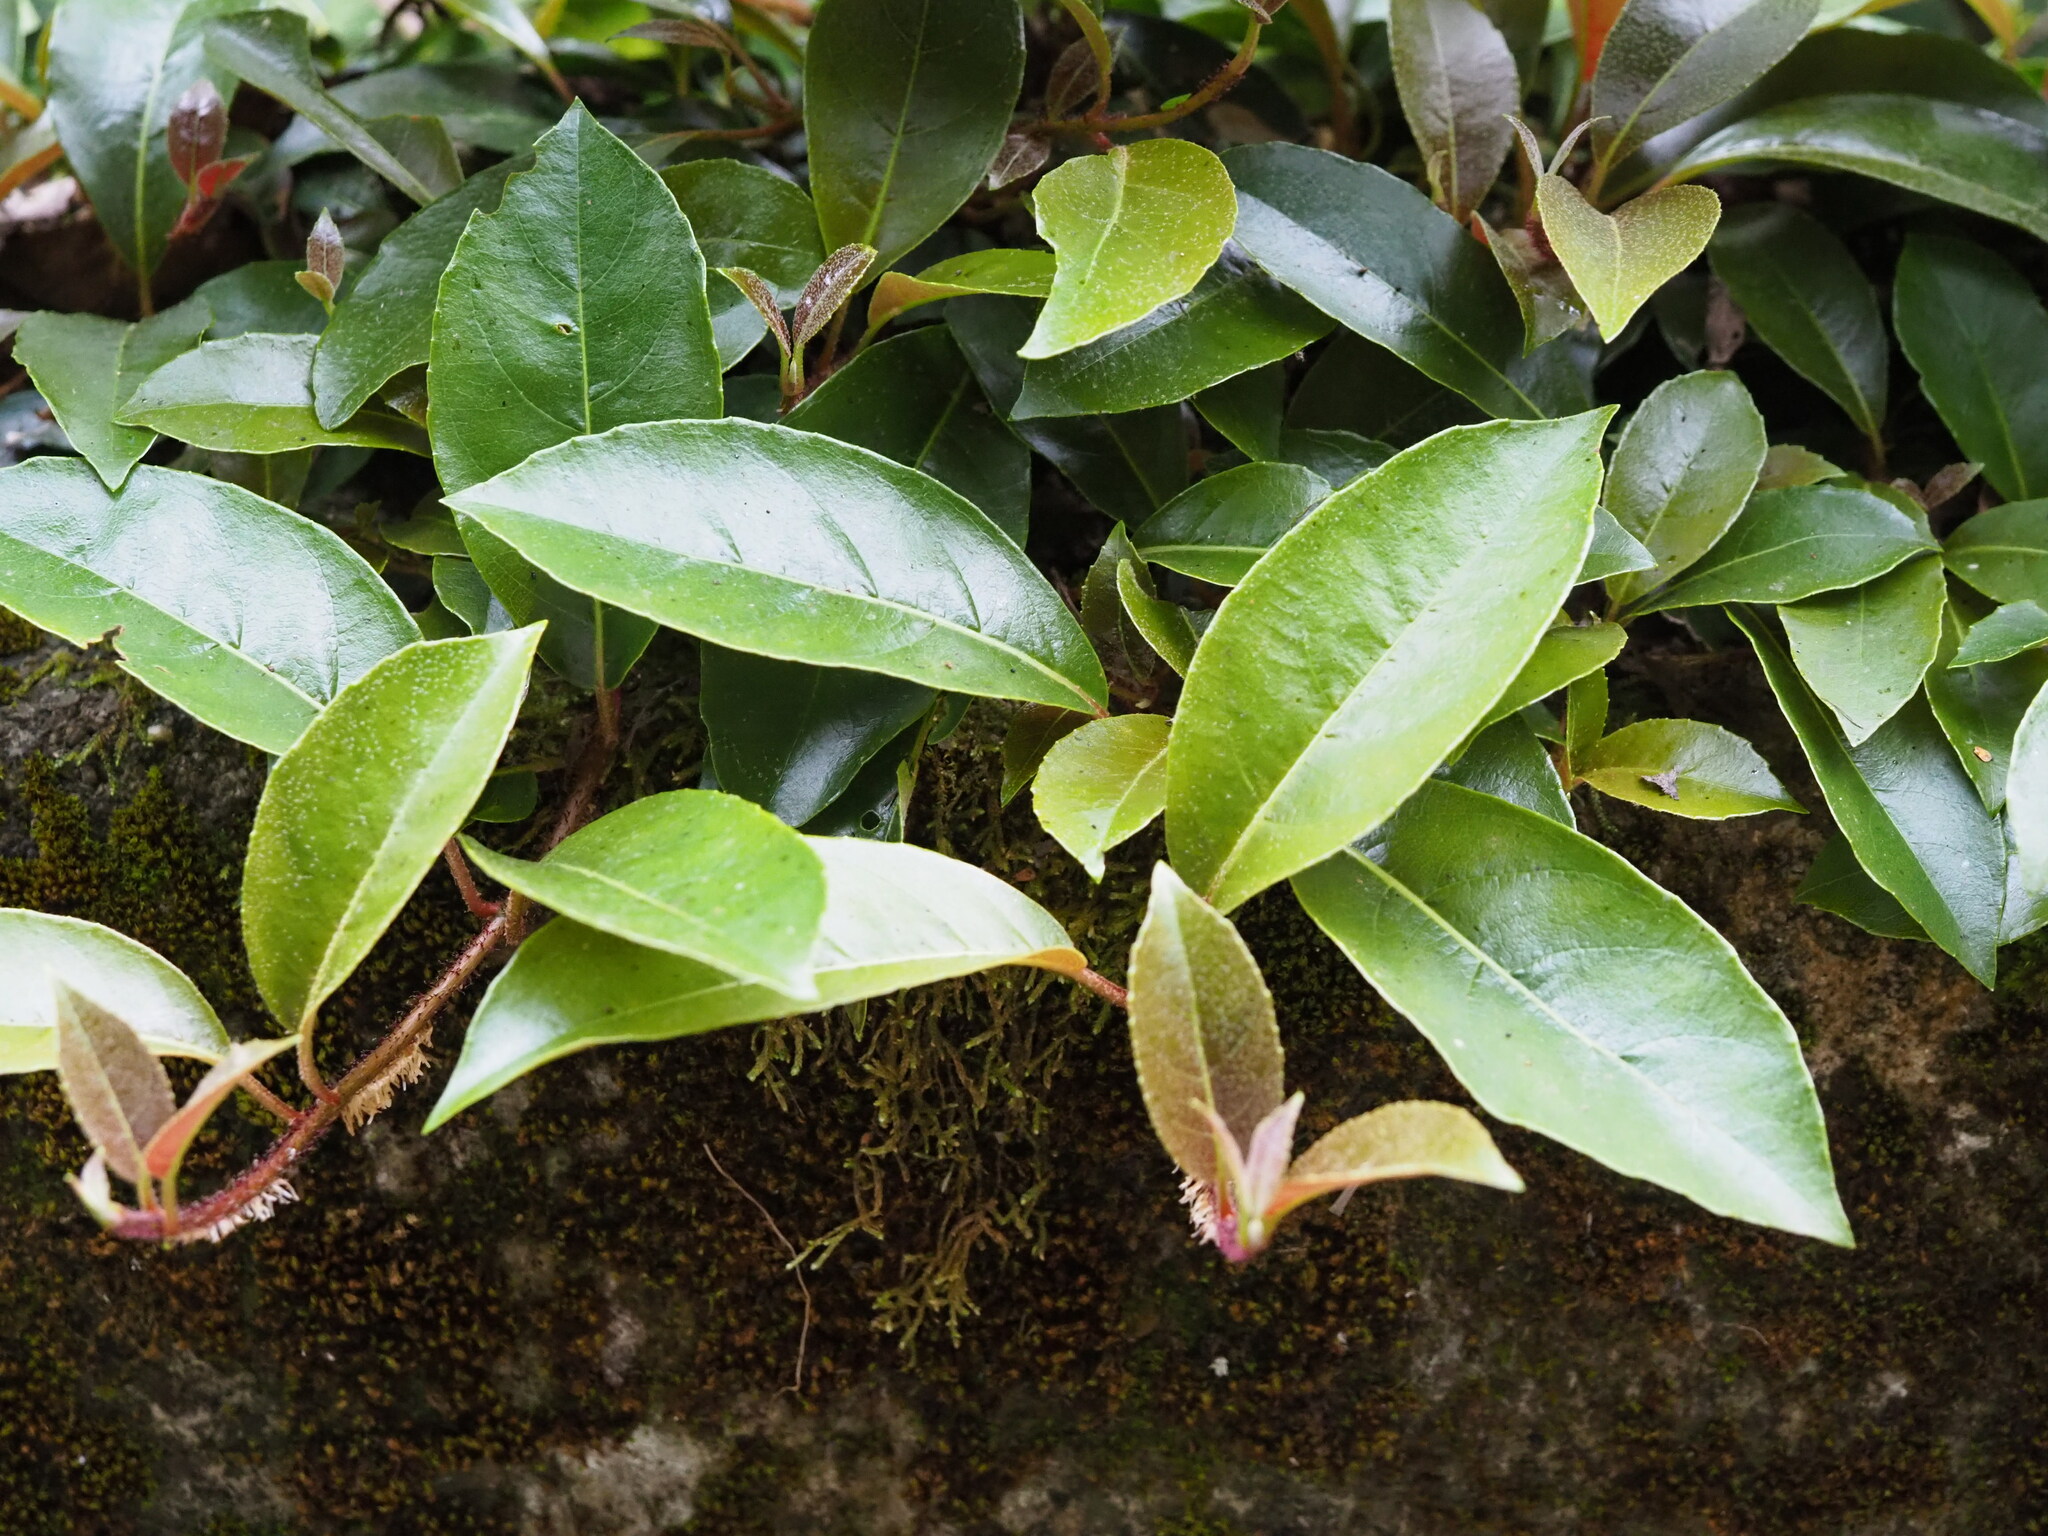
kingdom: Plantae
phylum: Tracheophyta
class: Magnoliopsida
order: Cornales
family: Hydrangeaceae
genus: Hydrangea
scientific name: Hydrangea integrifolia
